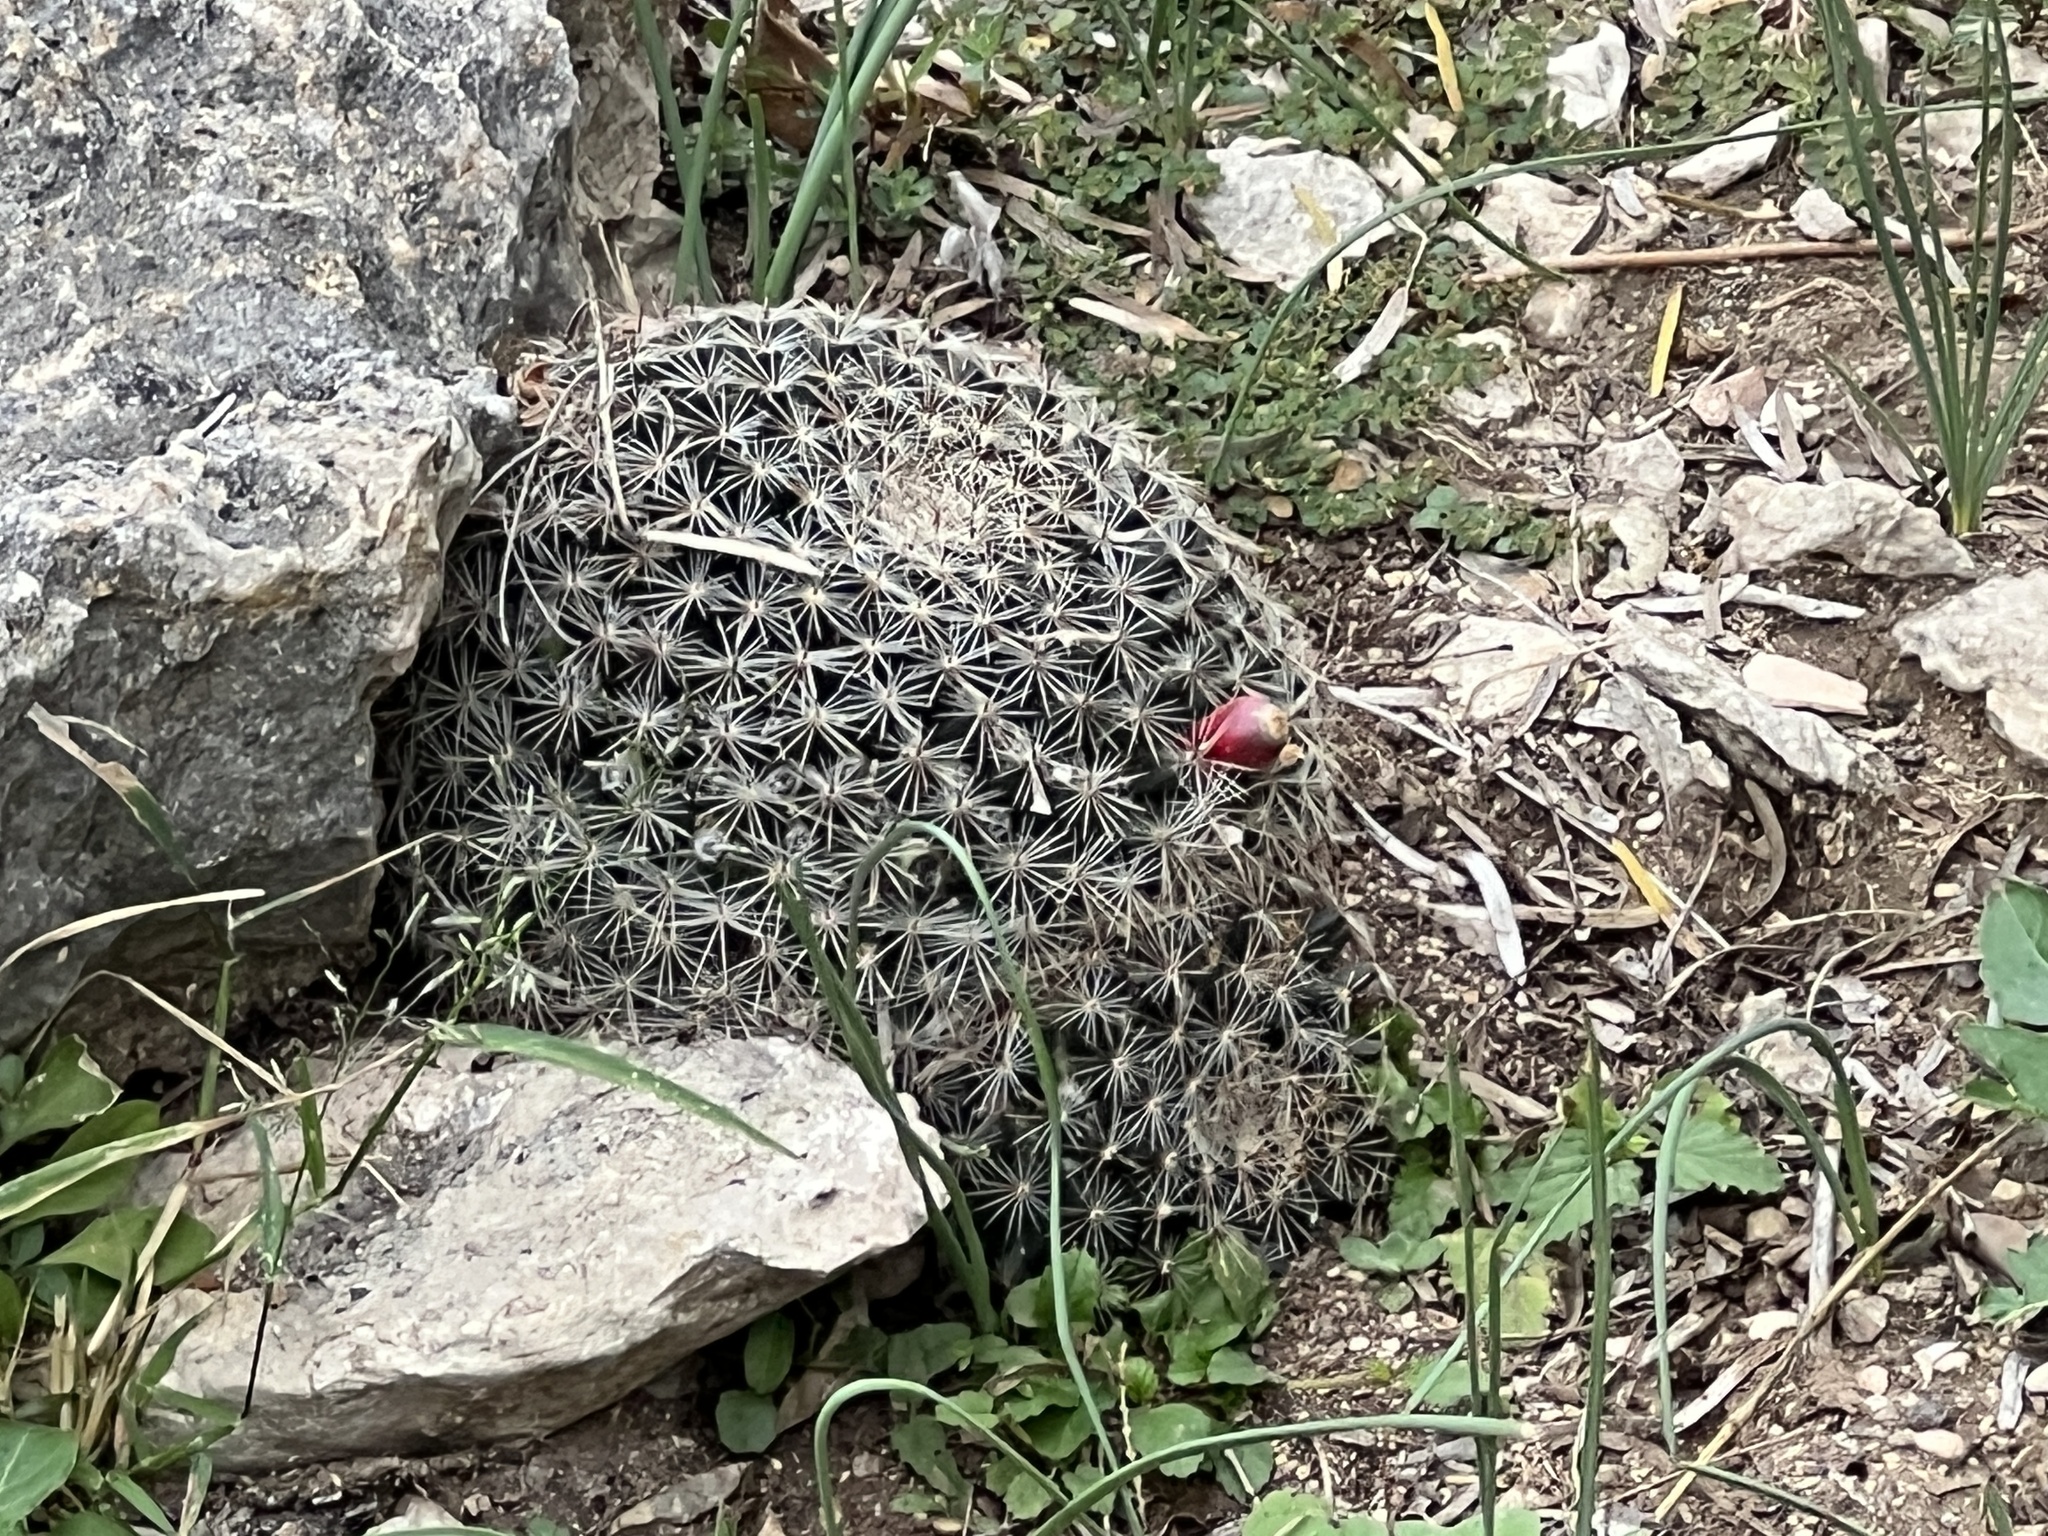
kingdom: Plantae
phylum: Tracheophyta
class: Magnoliopsida
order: Caryophyllales
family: Cactaceae
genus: Mammillaria
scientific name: Mammillaria heyderi
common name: Little nipple cactus
